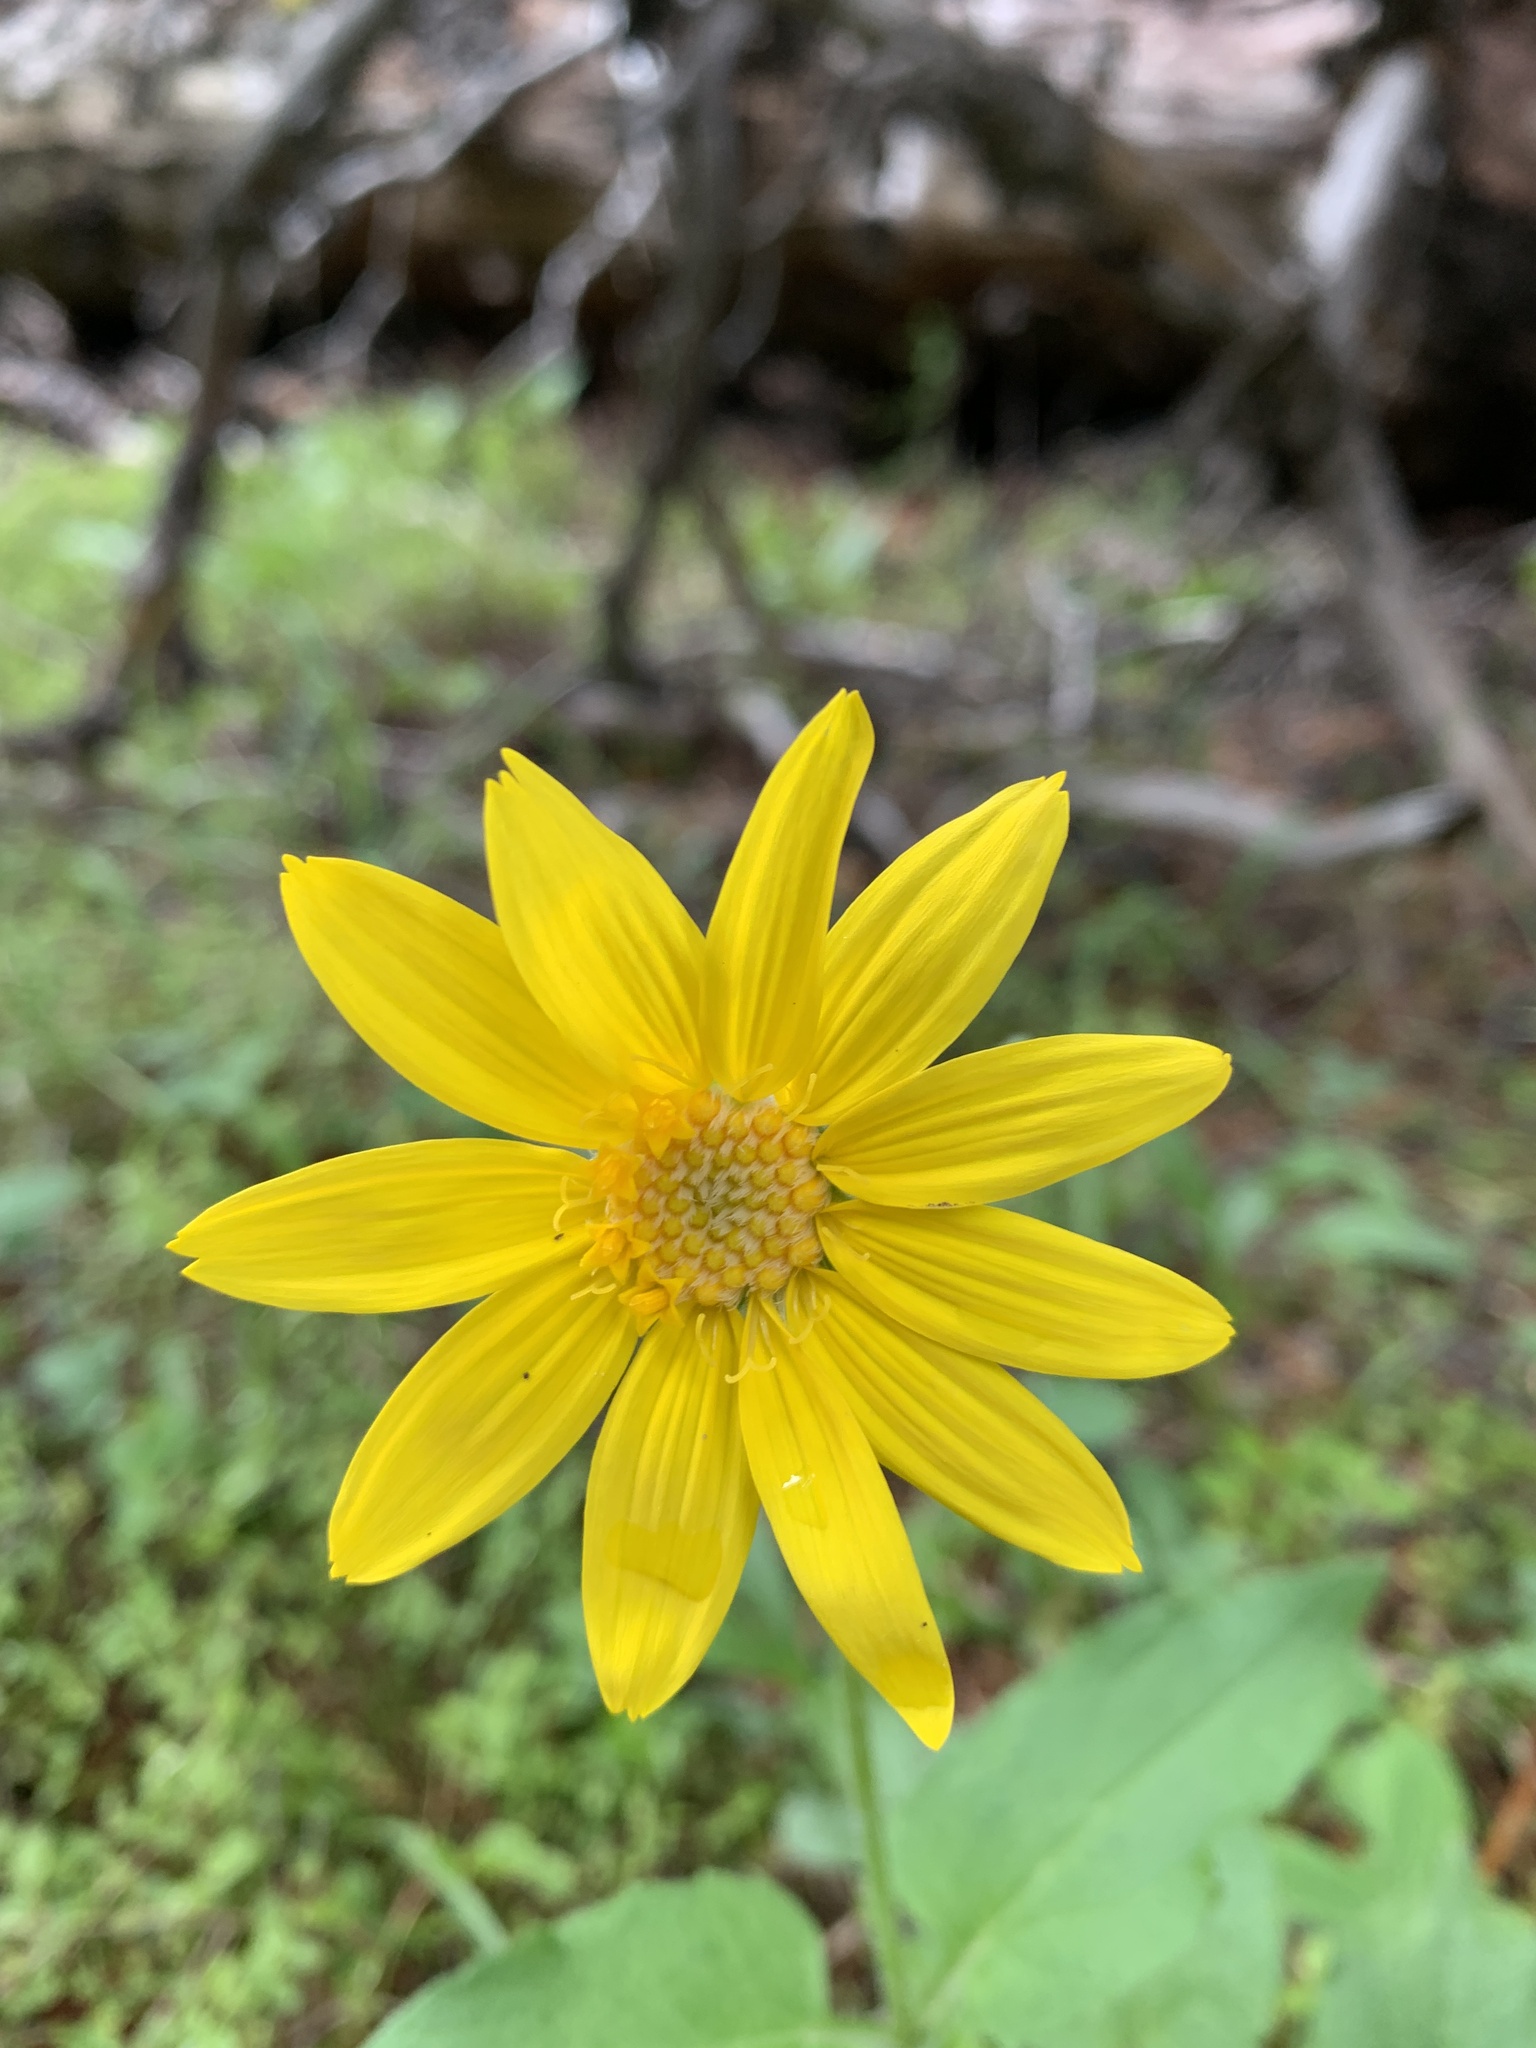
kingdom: Plantae
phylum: Tracheophyta
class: Magnoliopsida
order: Asterales
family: Asteraceae
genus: Arnica
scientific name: Arnica cordifolia
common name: Heart-leaf arnica
